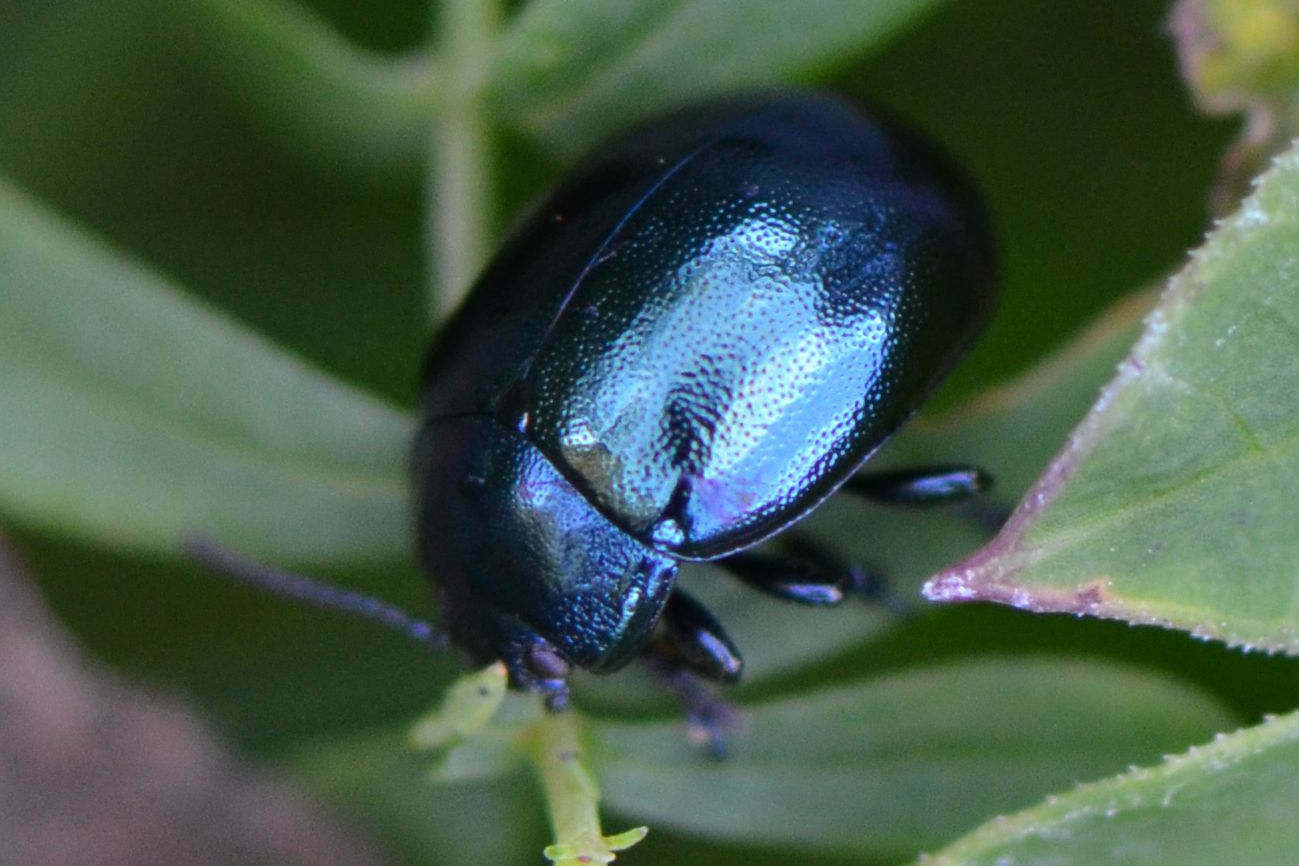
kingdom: Animalia
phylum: Arthropoda
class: Insecta
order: Coleoptera
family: Chrysomelidae
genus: Chrysolina
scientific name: Chrysolina varians
